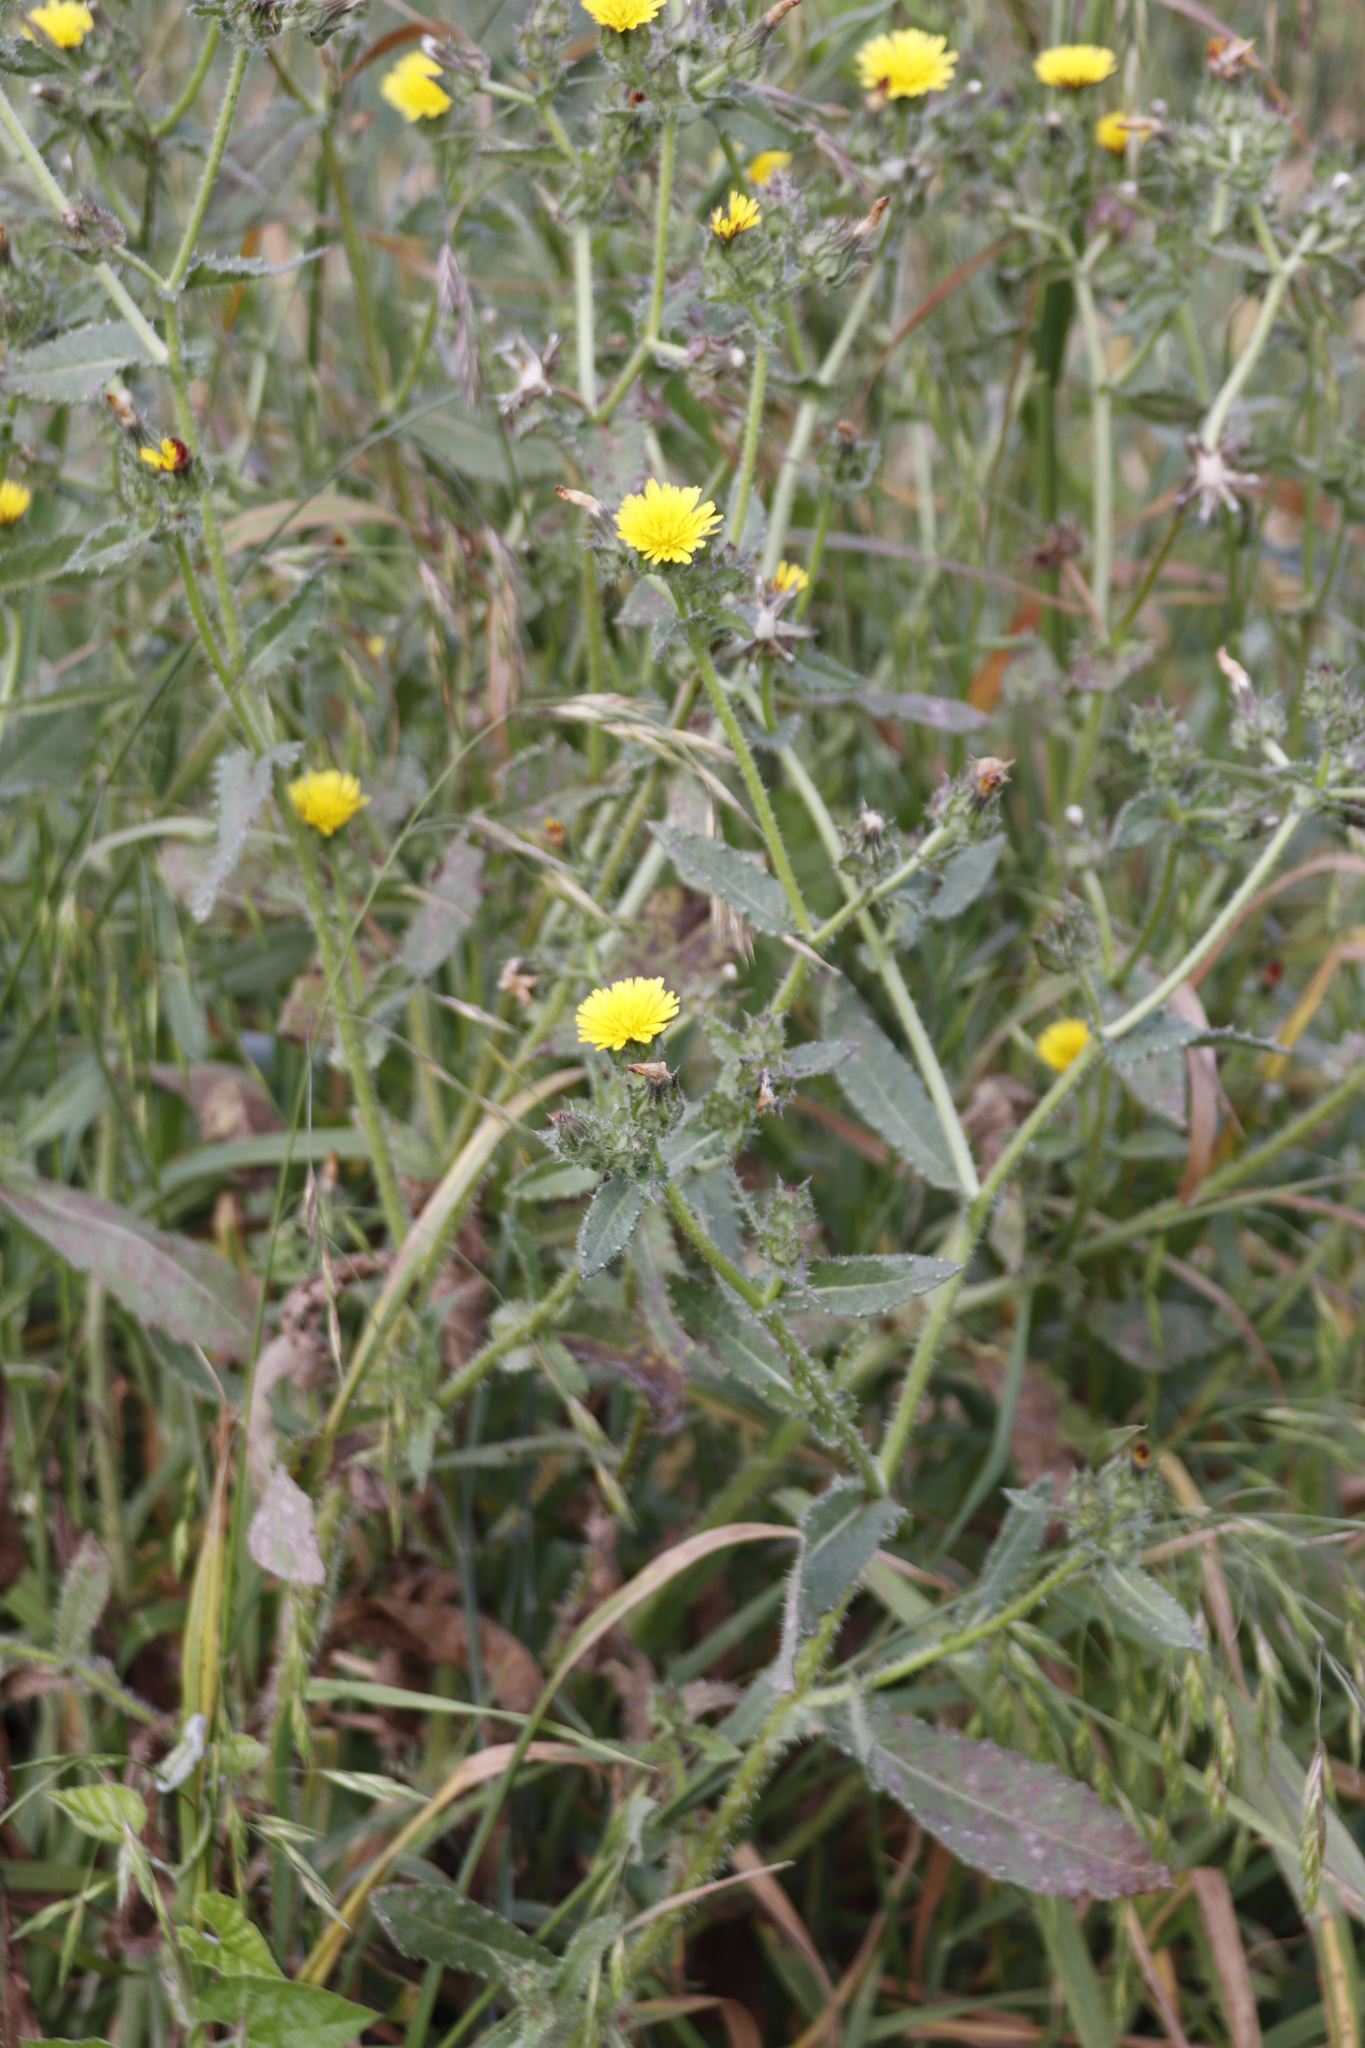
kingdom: Plantae
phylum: Tracheophyta
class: Magnoliopsida
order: Asterales
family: Asteraceae
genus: Helminthotheca
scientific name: Helminthotheca echioides
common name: Ox-tongue
